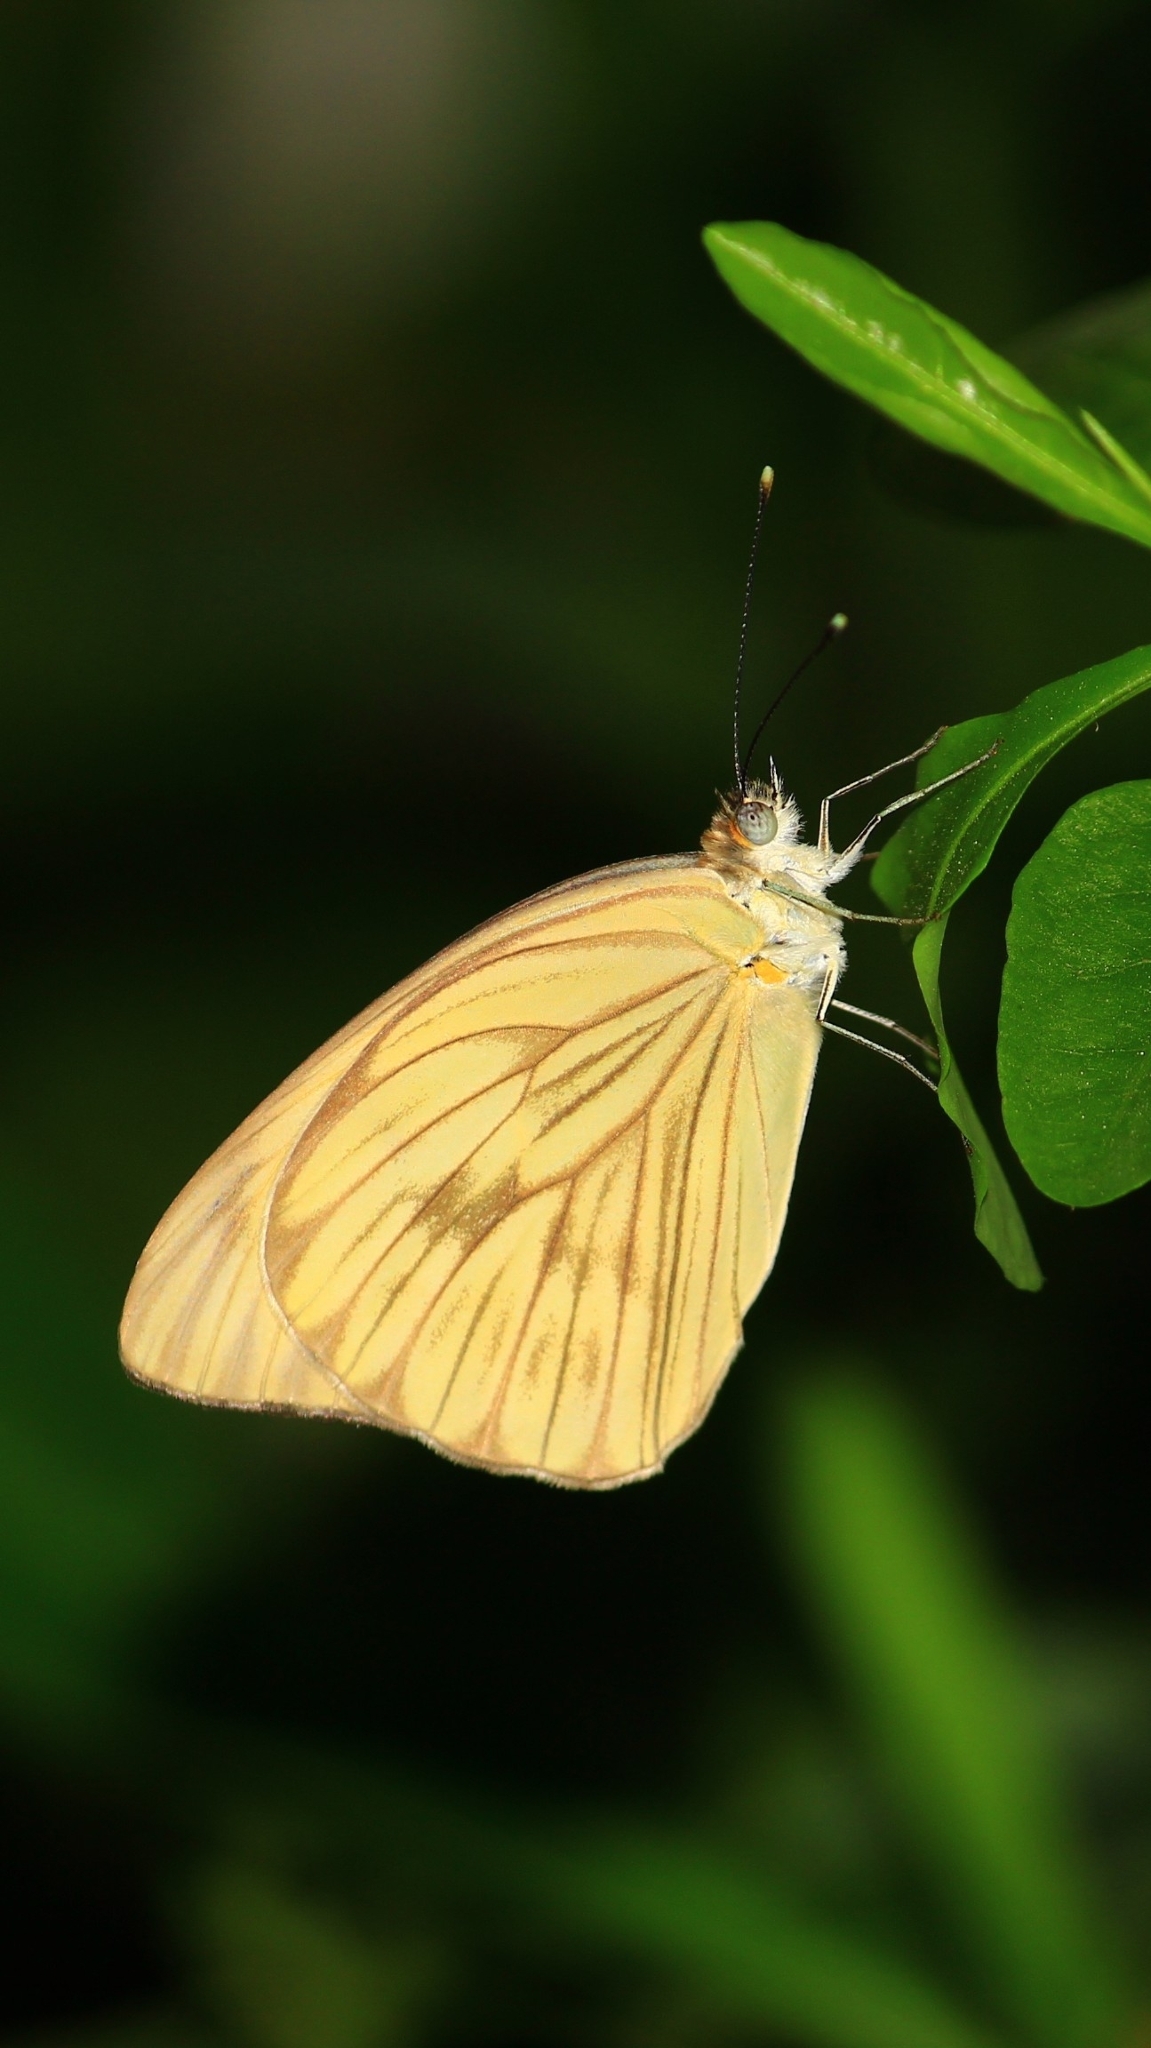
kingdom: Animalia
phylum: Arthropoda
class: Insecta
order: Lepidoptera
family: Pieridae
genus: Ascia
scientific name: Ascia monuste
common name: Great southern white
